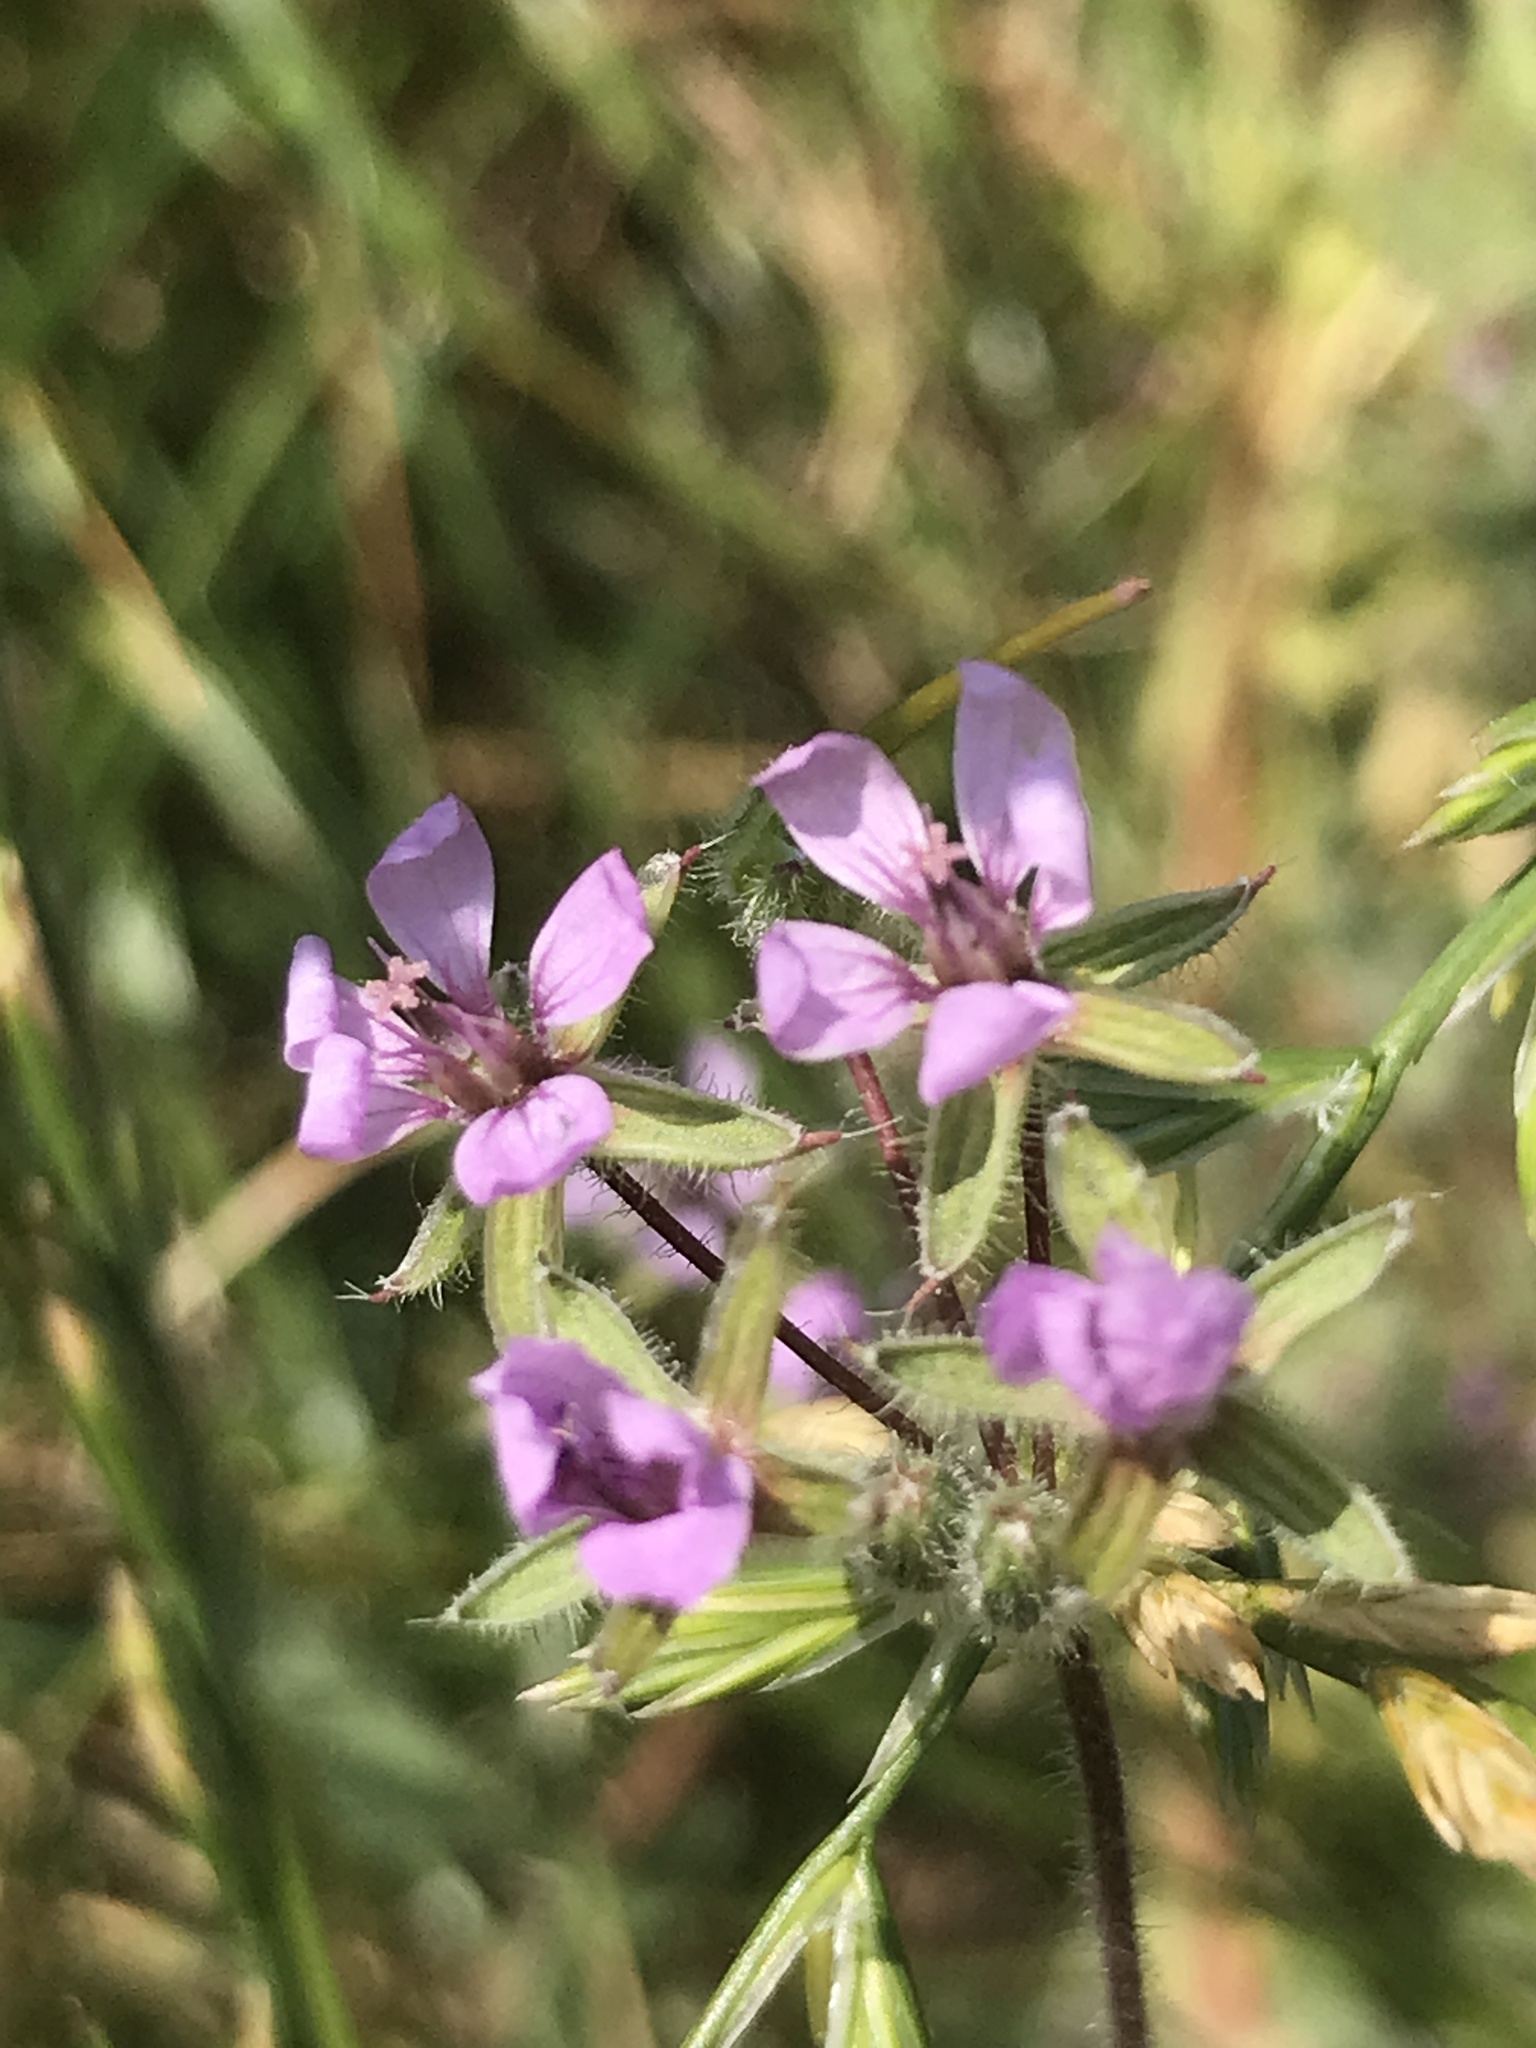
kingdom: Plantae
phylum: Tracheophyta
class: Magnoliopsida
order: Geraniales
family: Geraniaceae
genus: Erodium
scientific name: Erodium cicutarium
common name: Common stork's-bill
